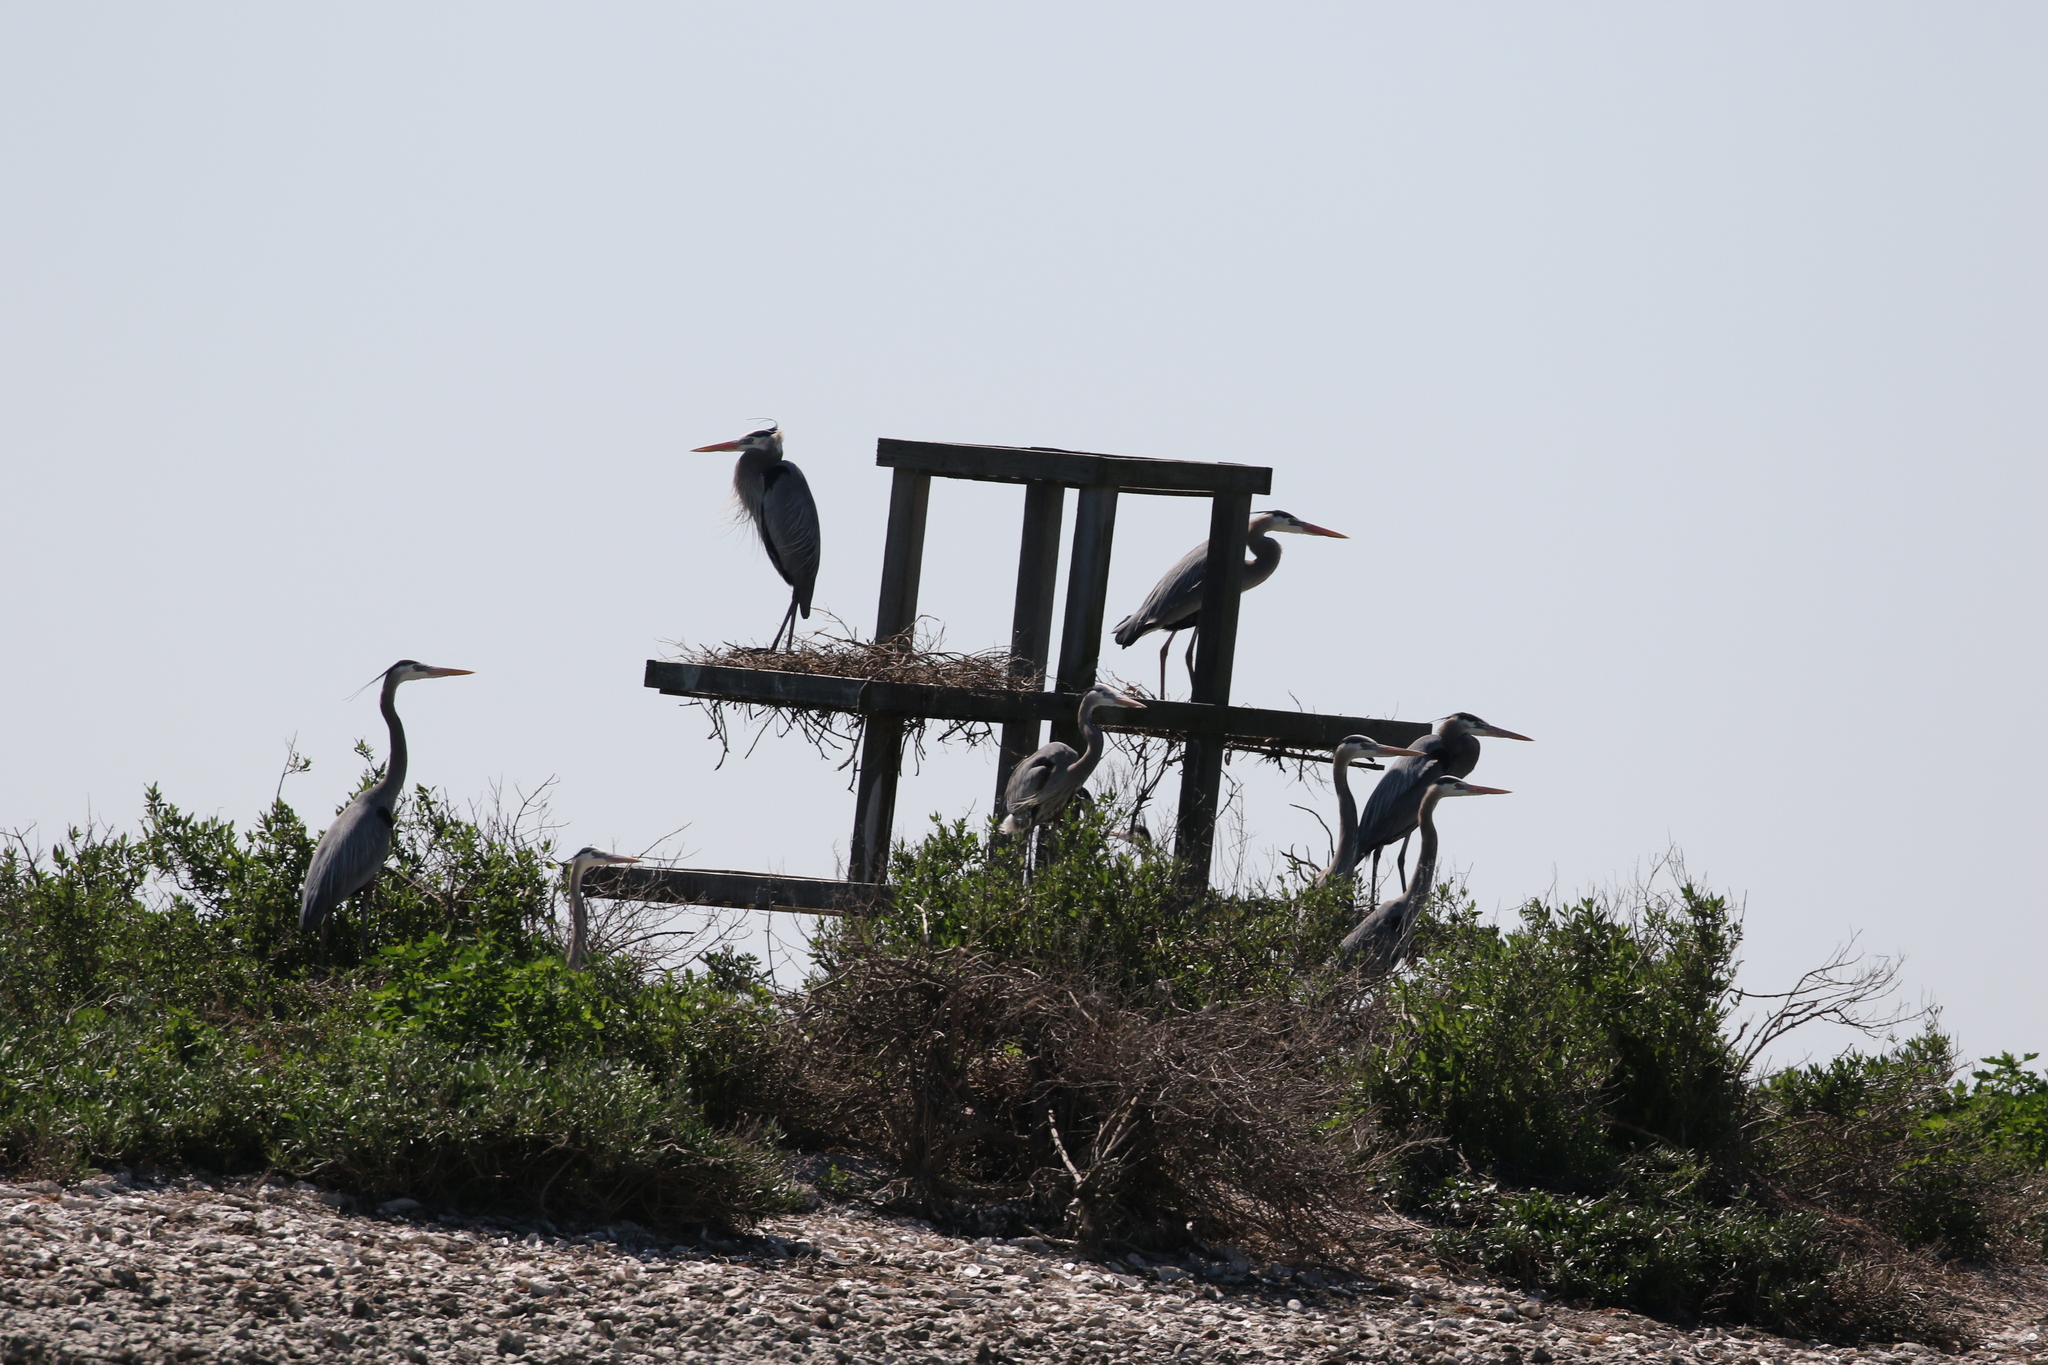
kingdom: Animalia
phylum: Chordata
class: Aves
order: Pelecaniformes
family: Ardeidae
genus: Ardea
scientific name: Ardea herodias
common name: Great blue heron
